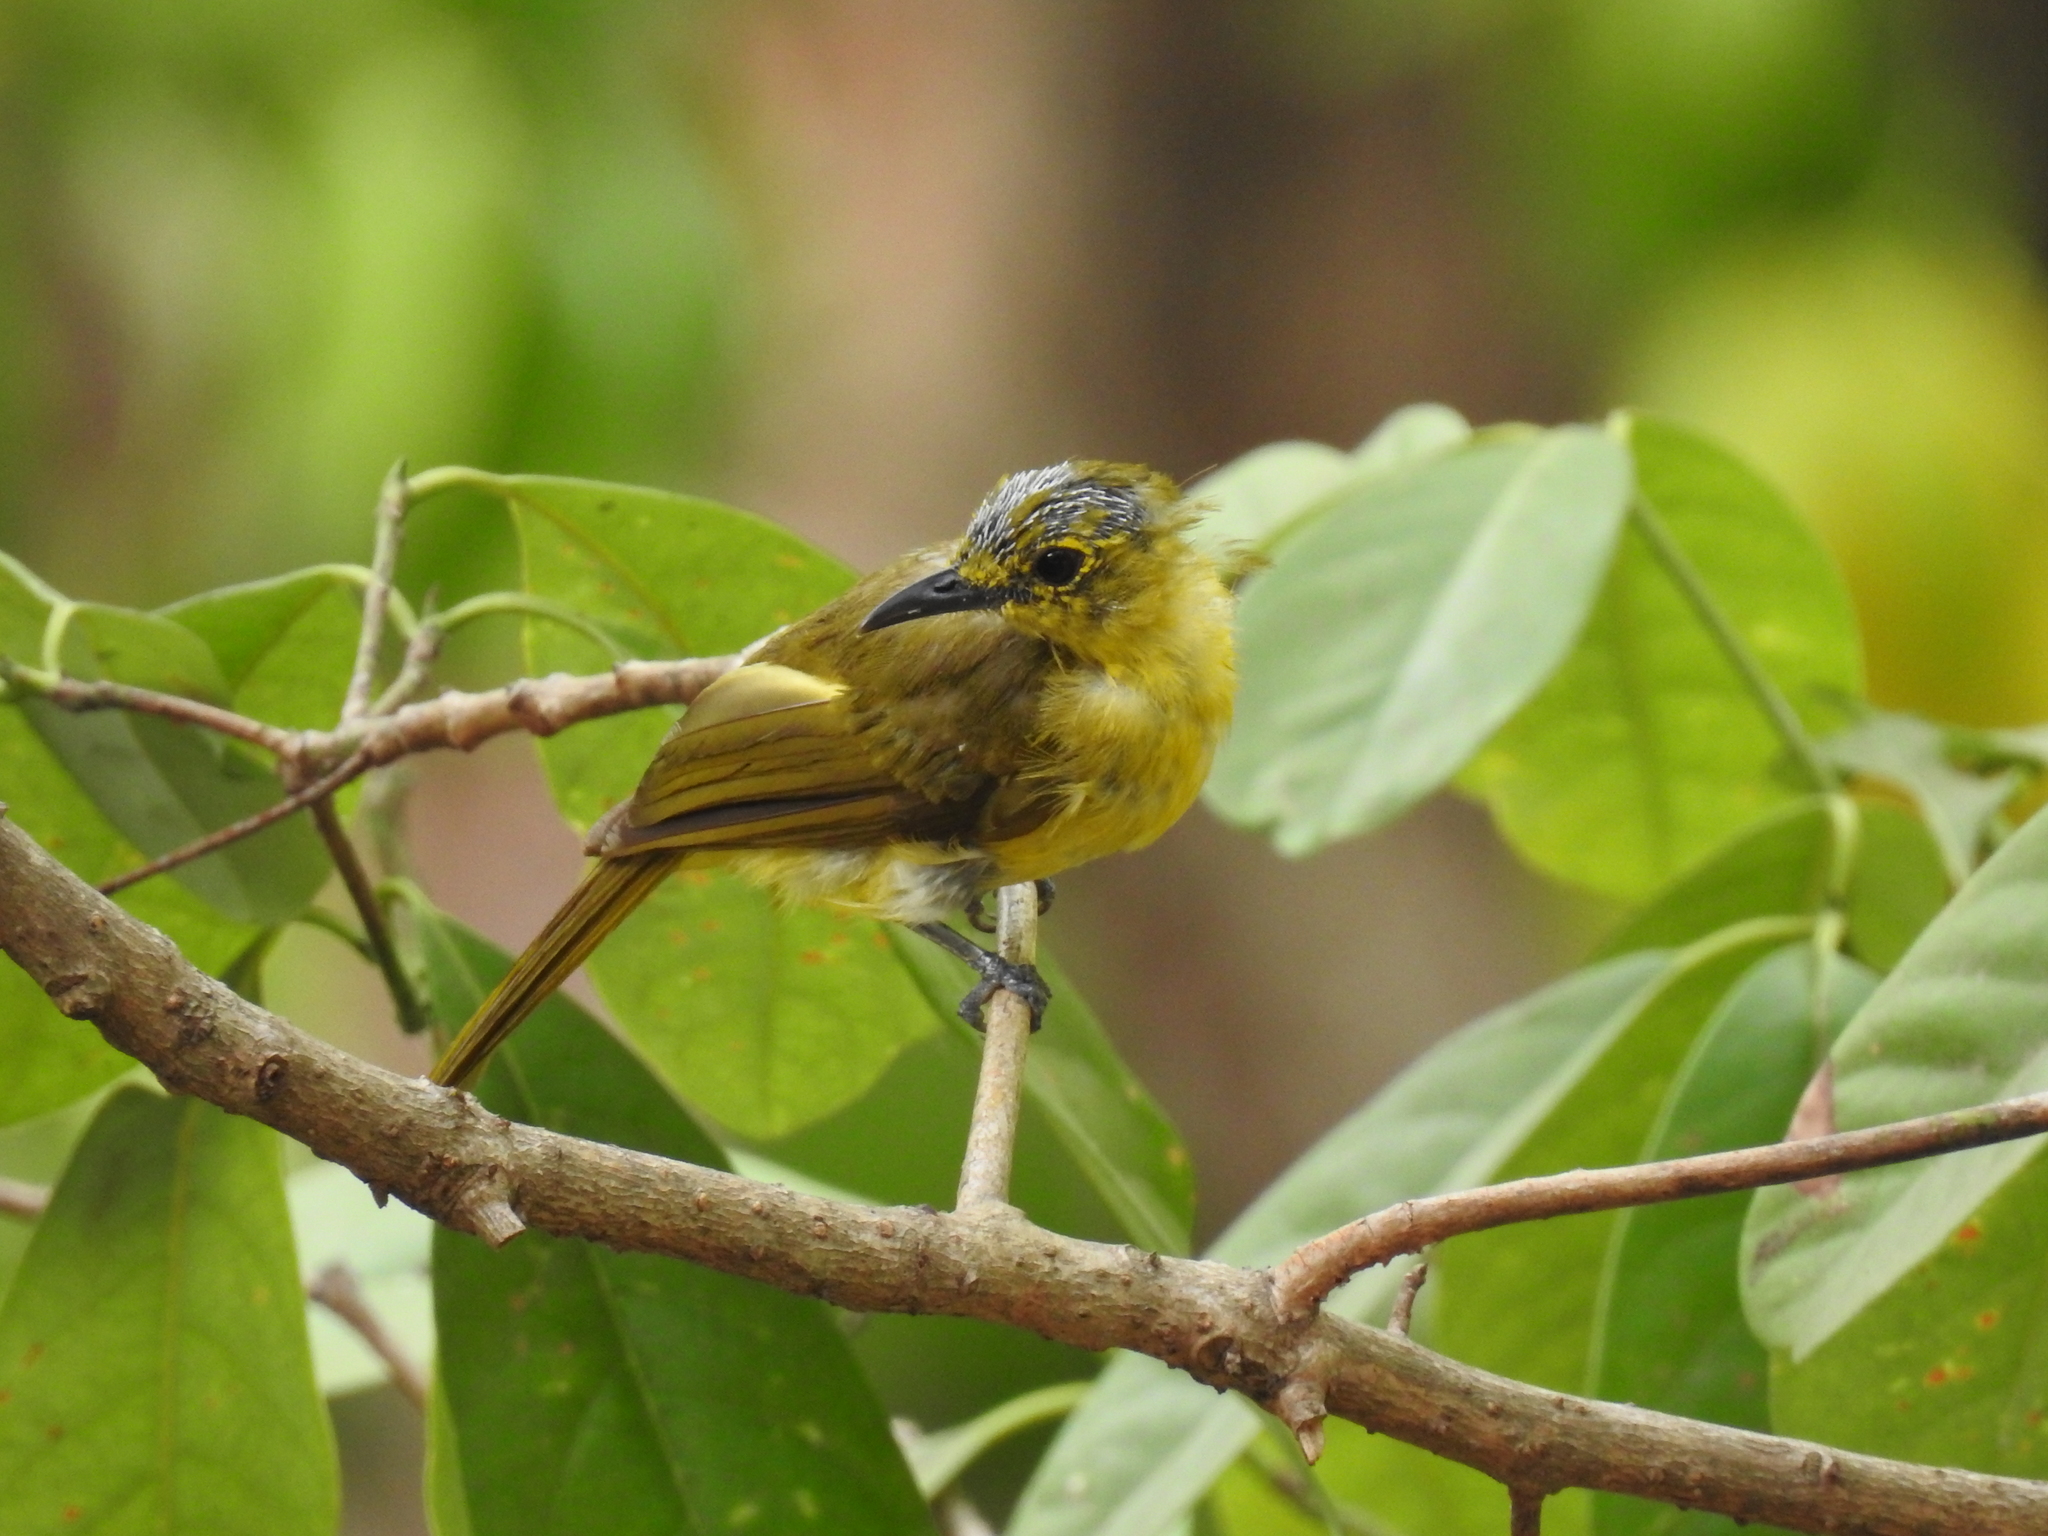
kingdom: Animalia
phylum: Chordata
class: Aves
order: Passeriformes
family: Pycnonotidae
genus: Acritillas
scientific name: Acritillas indica
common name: Yellow-browed bulbul
